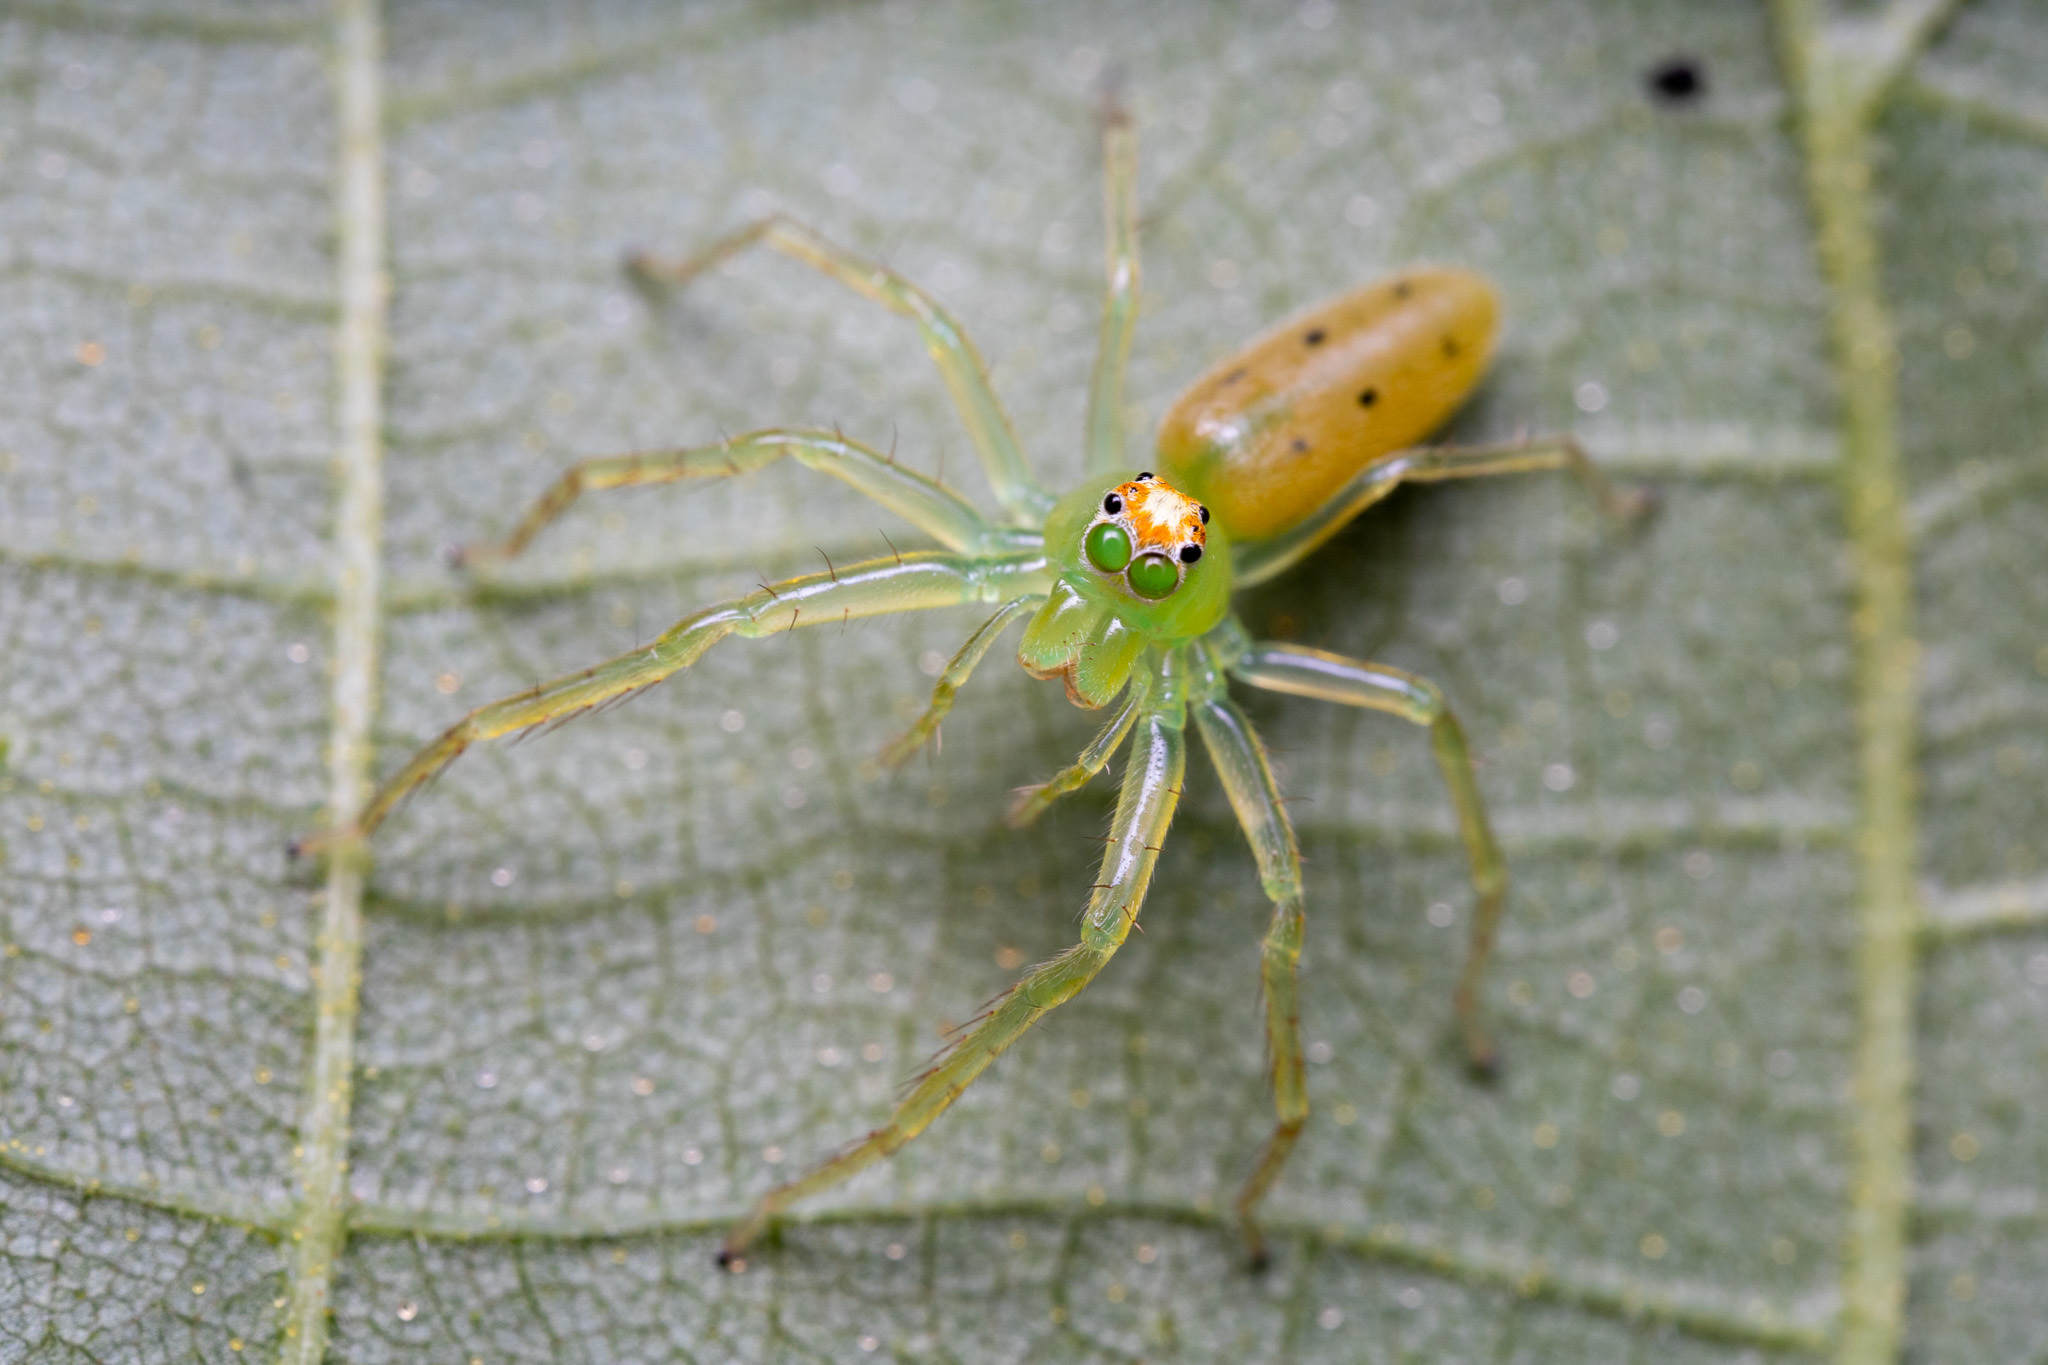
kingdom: Animalia
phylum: Arthropoda
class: Arachnida
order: Araneae
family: Salticidae
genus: Lyssomanes
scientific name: Lyssomanes viridis
